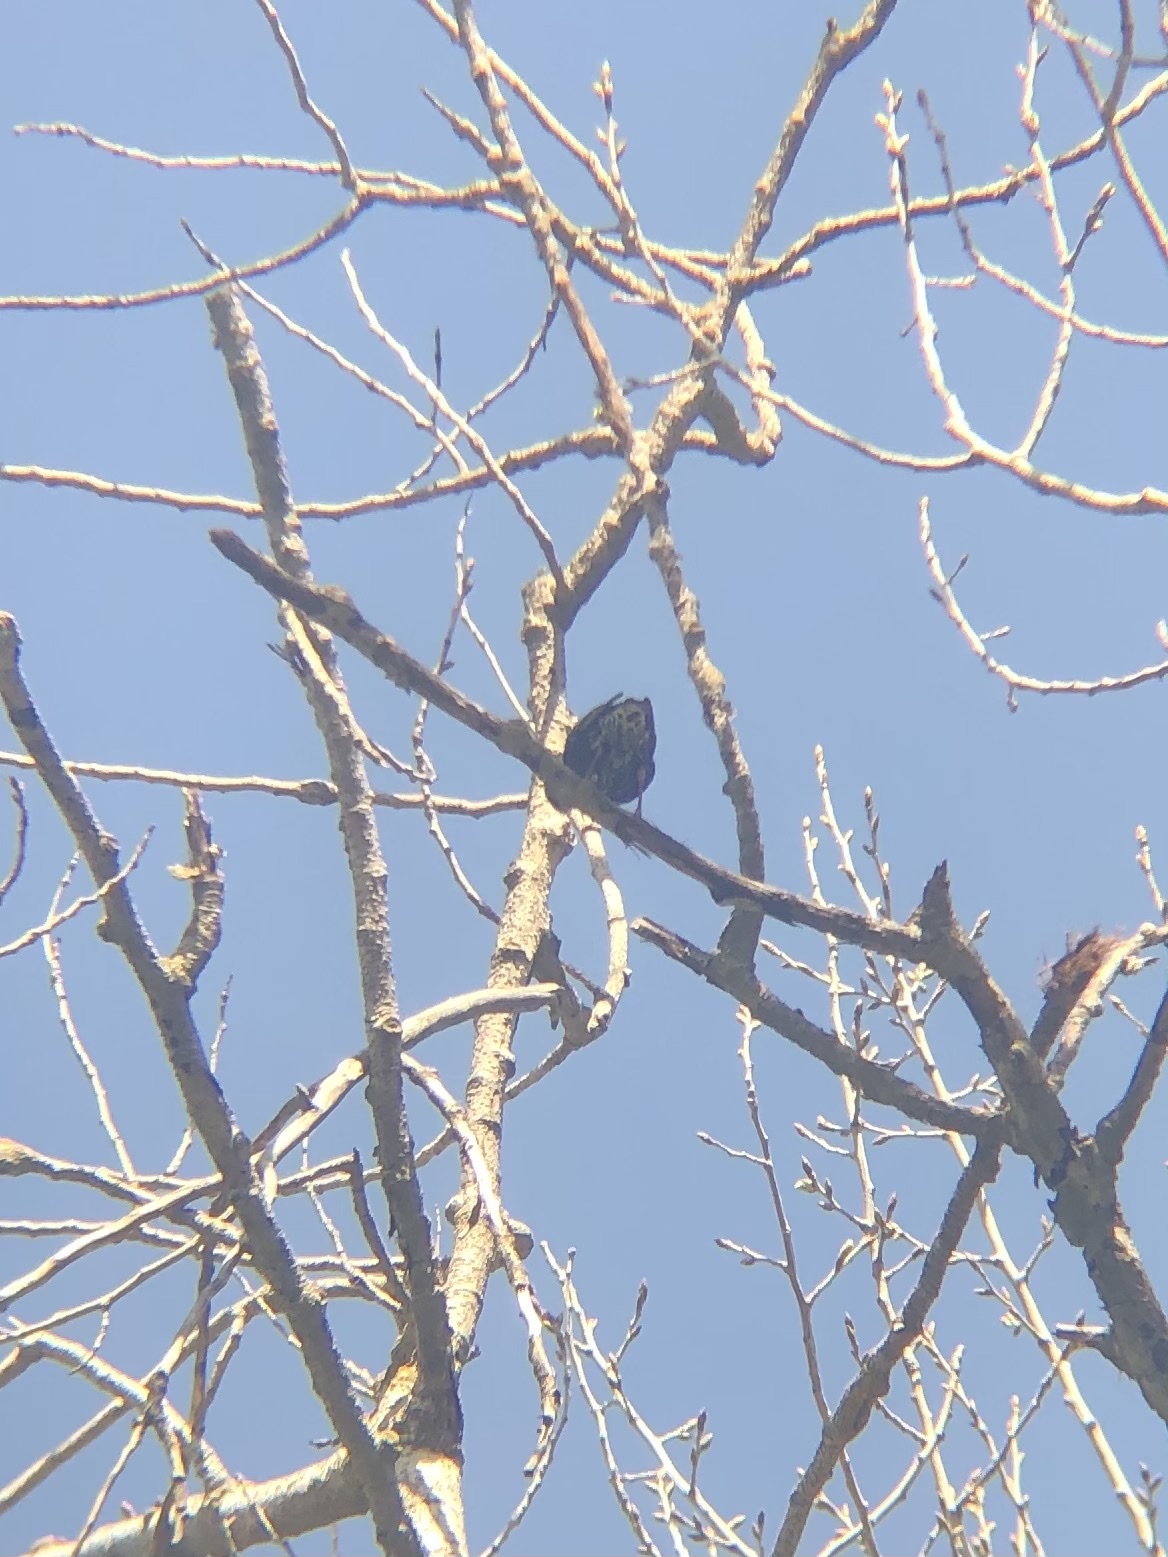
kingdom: Animalia
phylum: Chordata
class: Aves
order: Passeriformes
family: Sturnidae
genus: Sturnus
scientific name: Sturnus vulgaris
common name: Common starling
